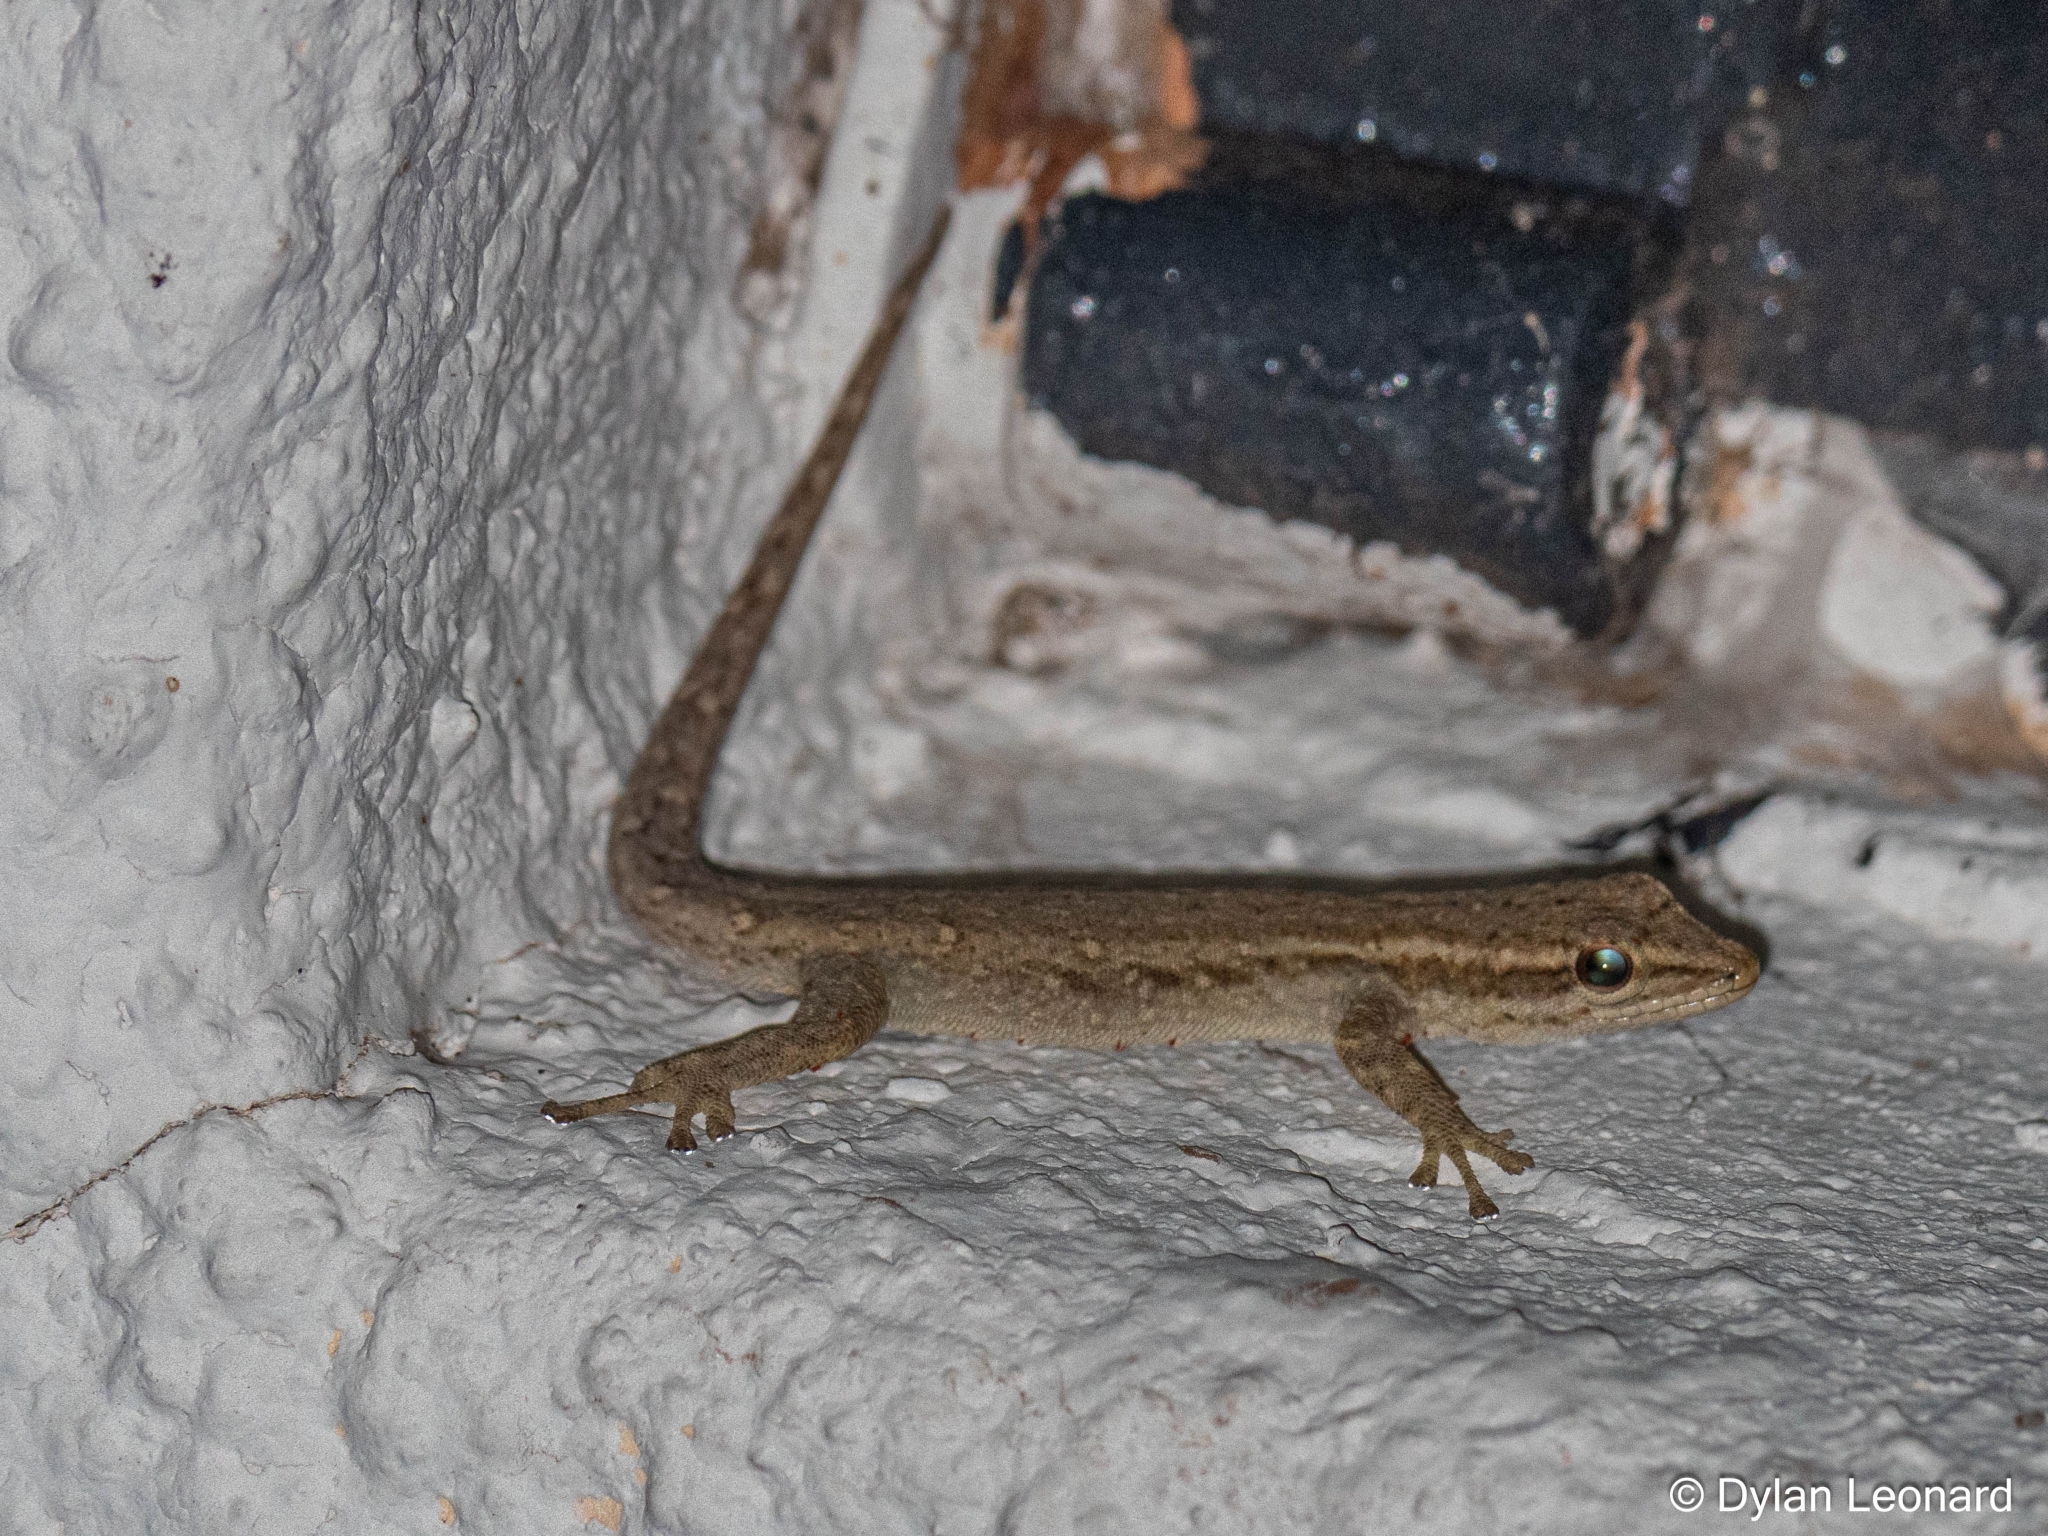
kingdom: Animalia
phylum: Chordata
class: Squamata
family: Gekkonidae
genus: Lygodactylus
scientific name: Lygodactylus capensis
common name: Cape dwarf gecko
